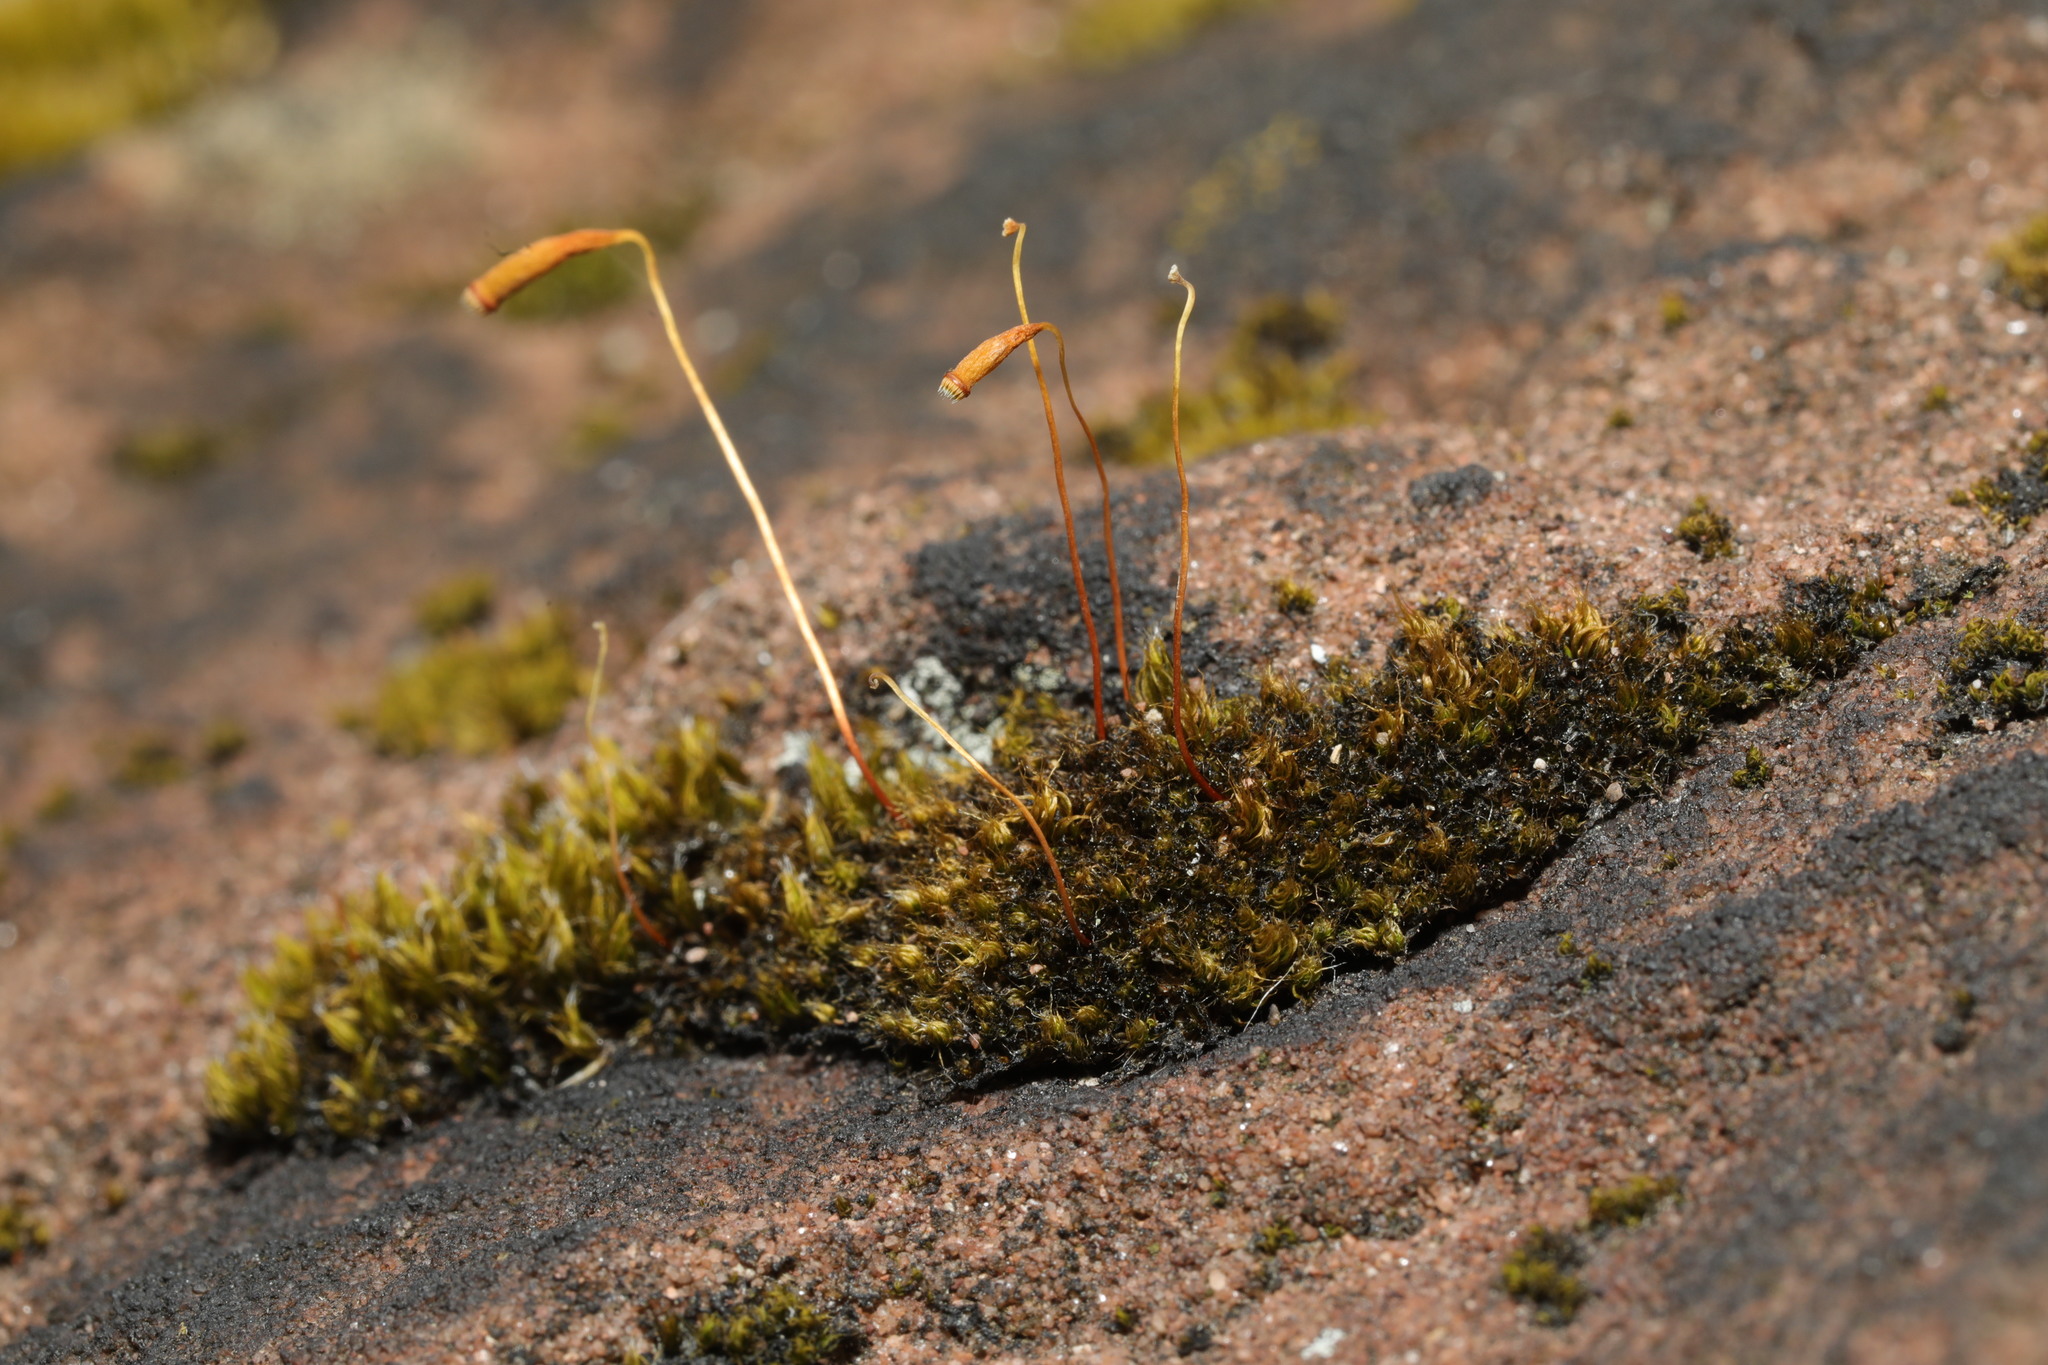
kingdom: Plantae
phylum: Bryophyta
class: Bryopsida
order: Bryales
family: Bryaceae
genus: Rosulabryum
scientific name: Rosulabryum capillare
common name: Capillary thread-moss
